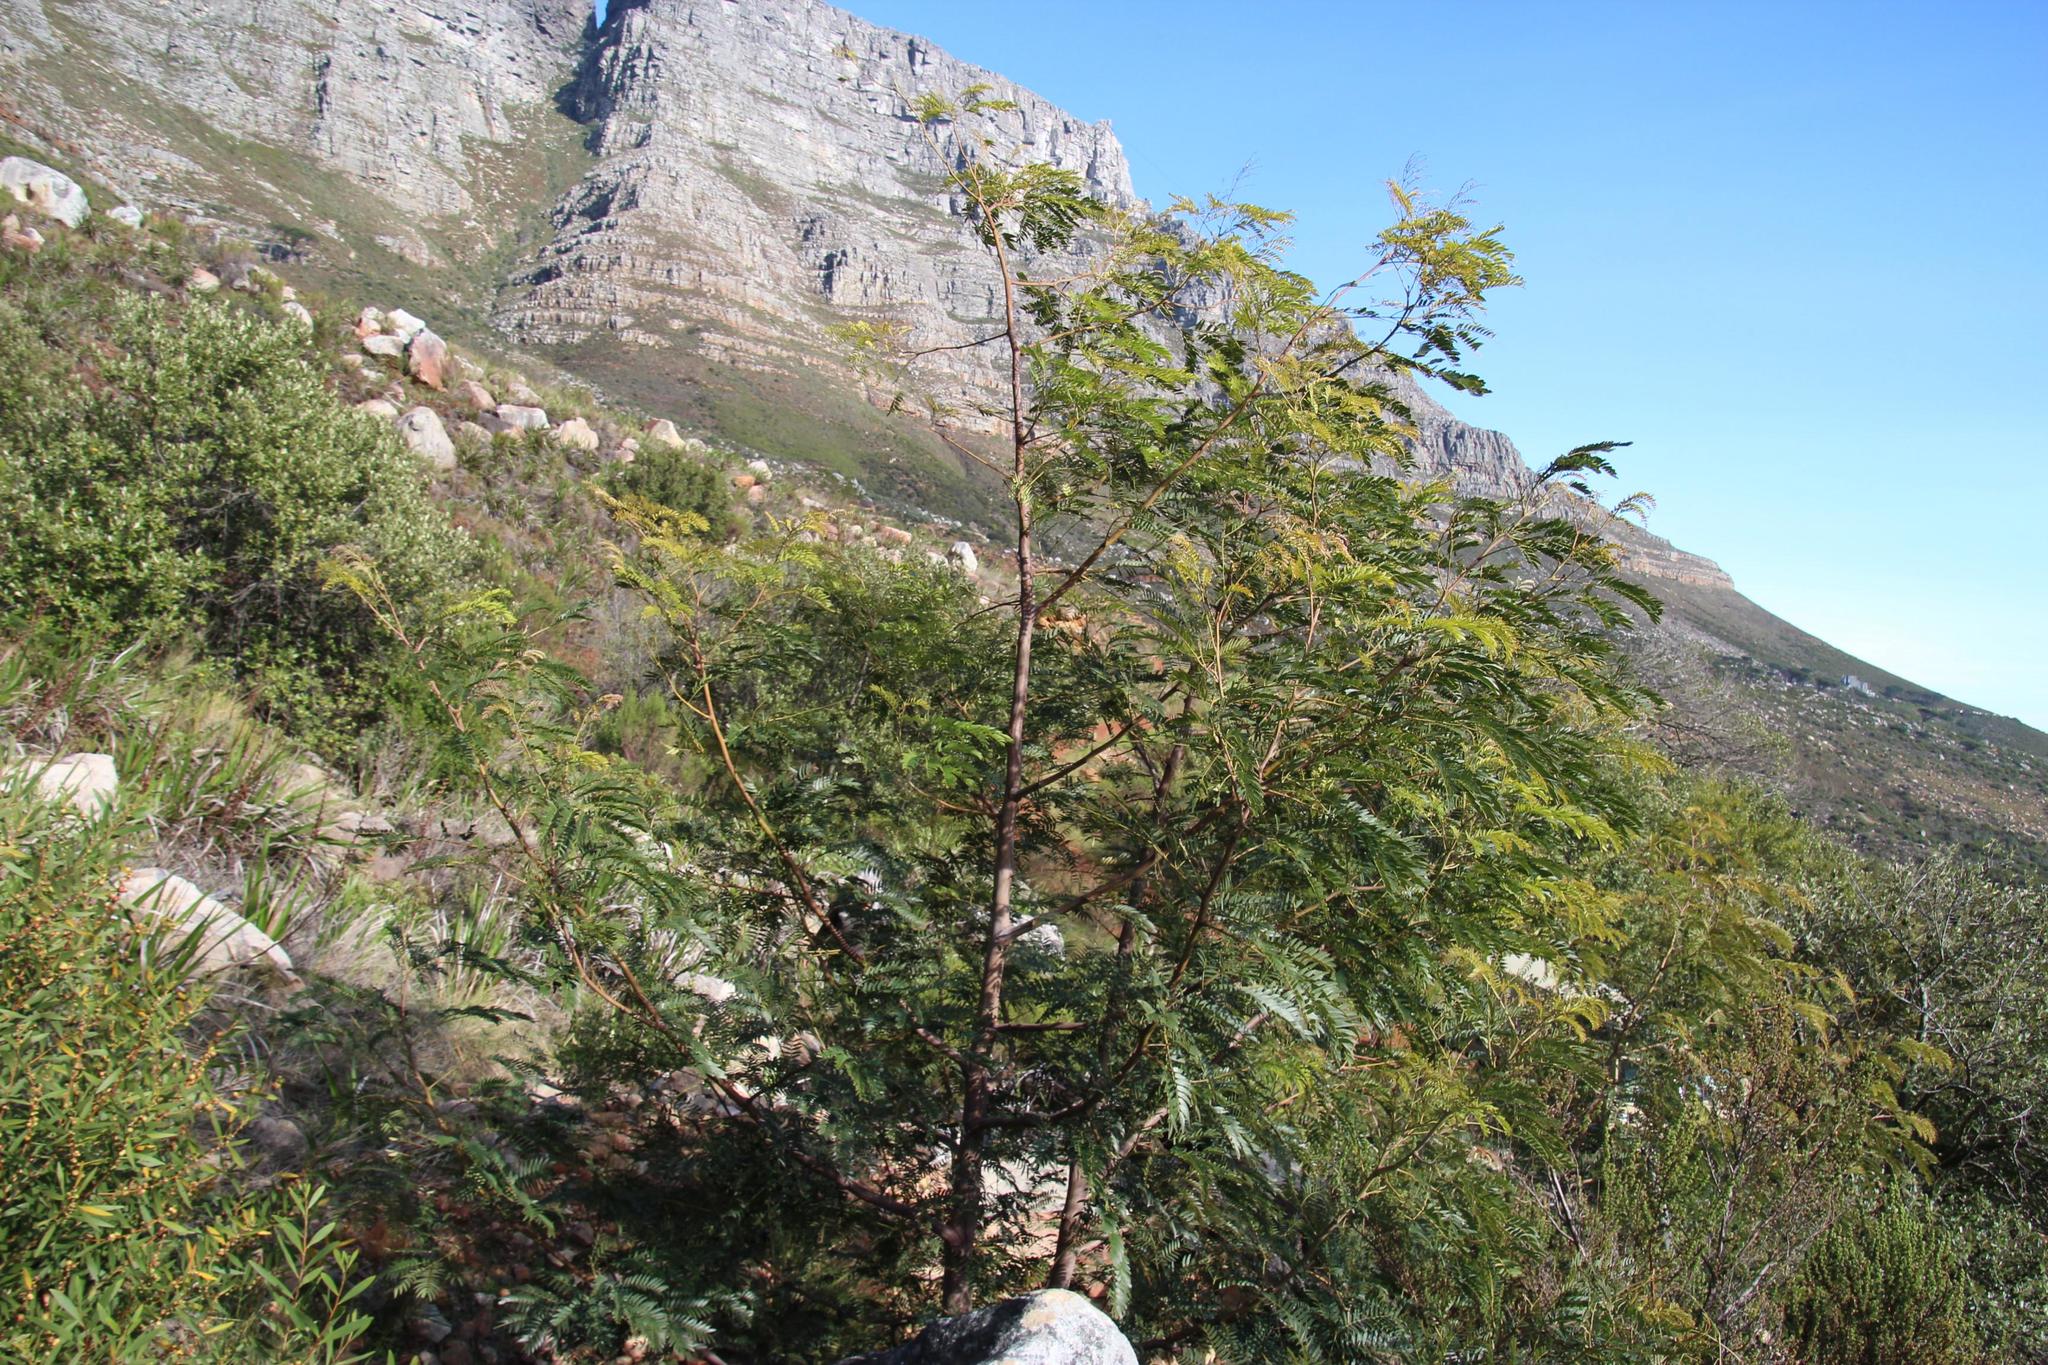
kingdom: Plantae
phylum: Tracheophyta
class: Magnoliopsida
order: Fabales
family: Fabaceae
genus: Acacia
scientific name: Acacia elata
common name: Cedar wattle
